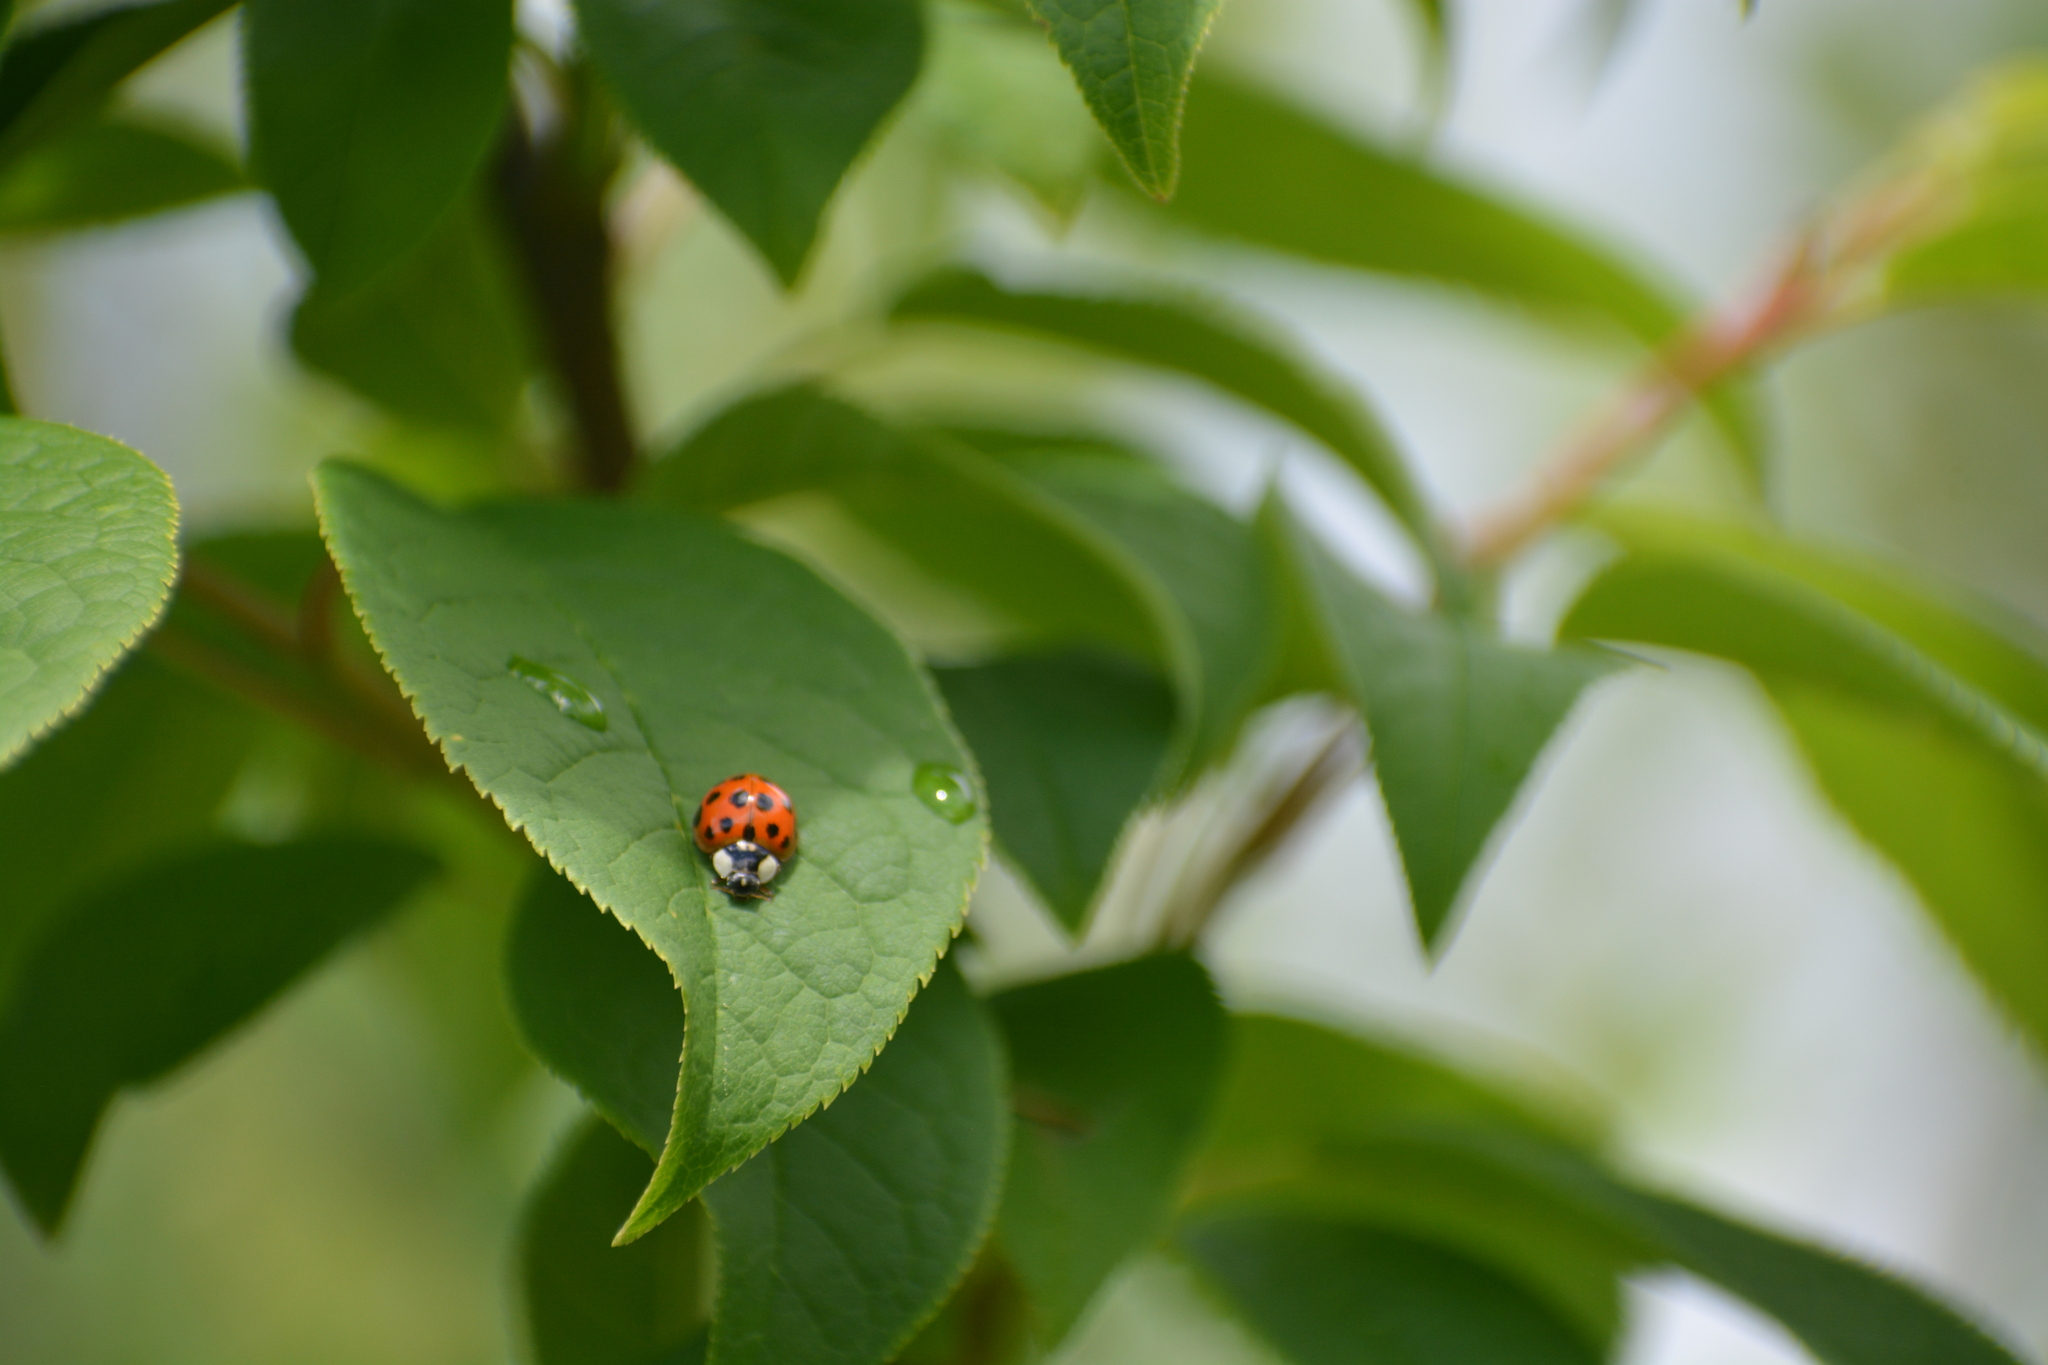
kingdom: Animalia
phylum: Arthropoda
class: Insecta
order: Coleoptera
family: Coccinellidae
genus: Harmonia
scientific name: Harmonia axyridis
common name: Harlequin ladybird
